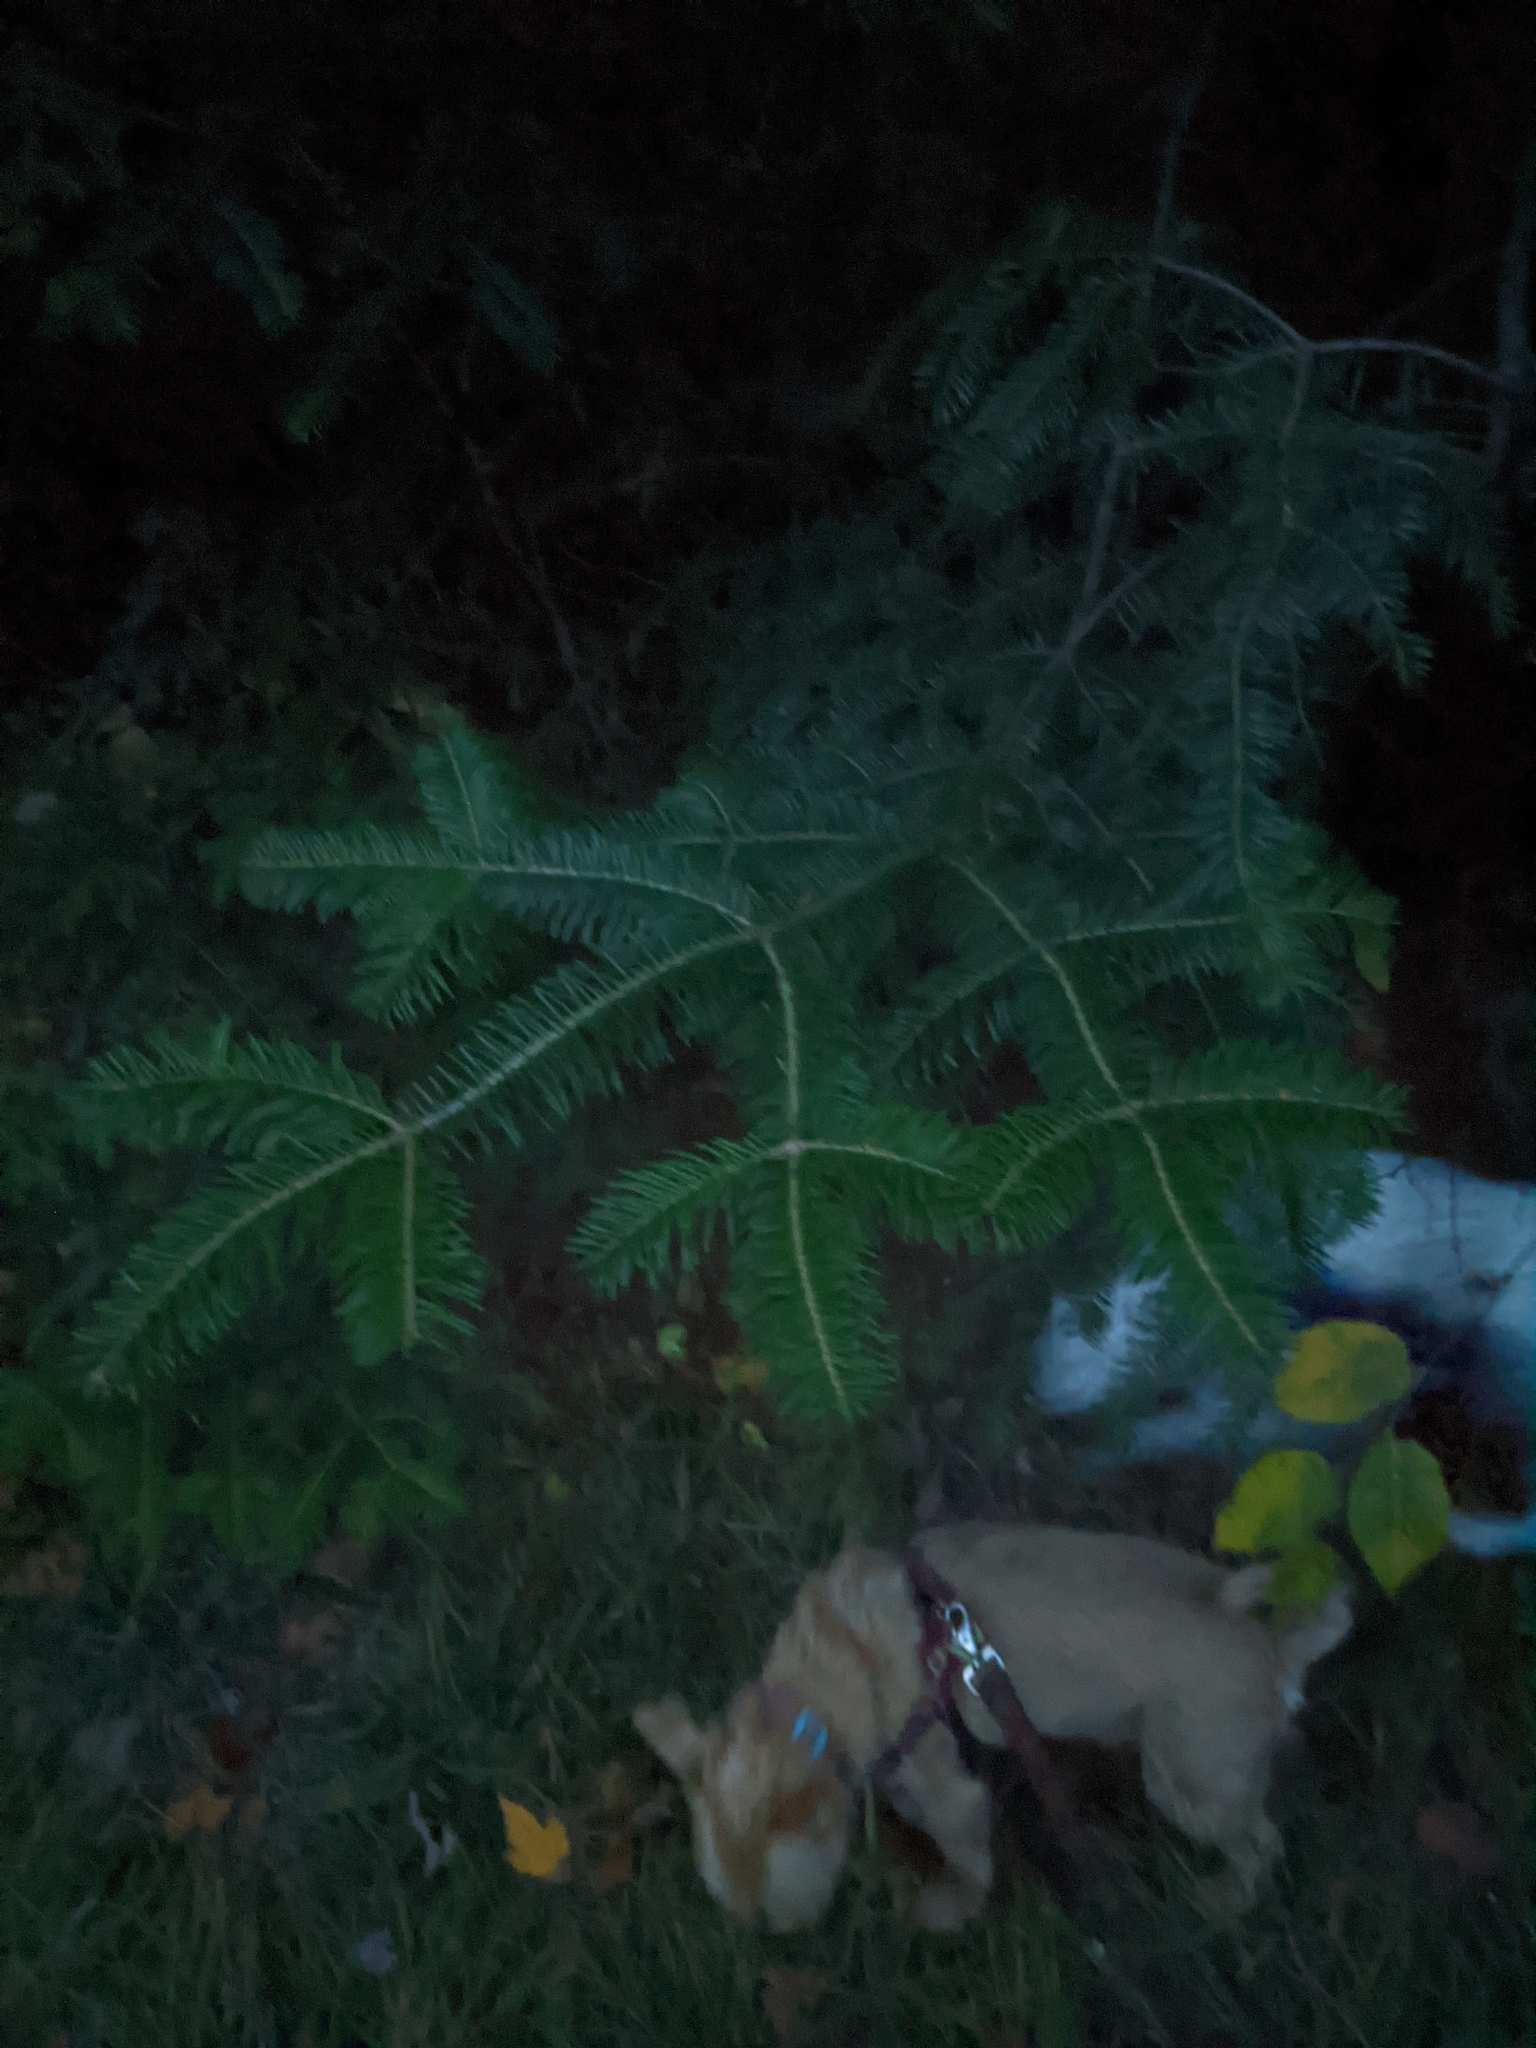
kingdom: Plantae
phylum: Tracheophyta
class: Pinopsida
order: Pinales
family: Pinaceae
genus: Abies
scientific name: Abies balsamea
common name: Balsam fir
